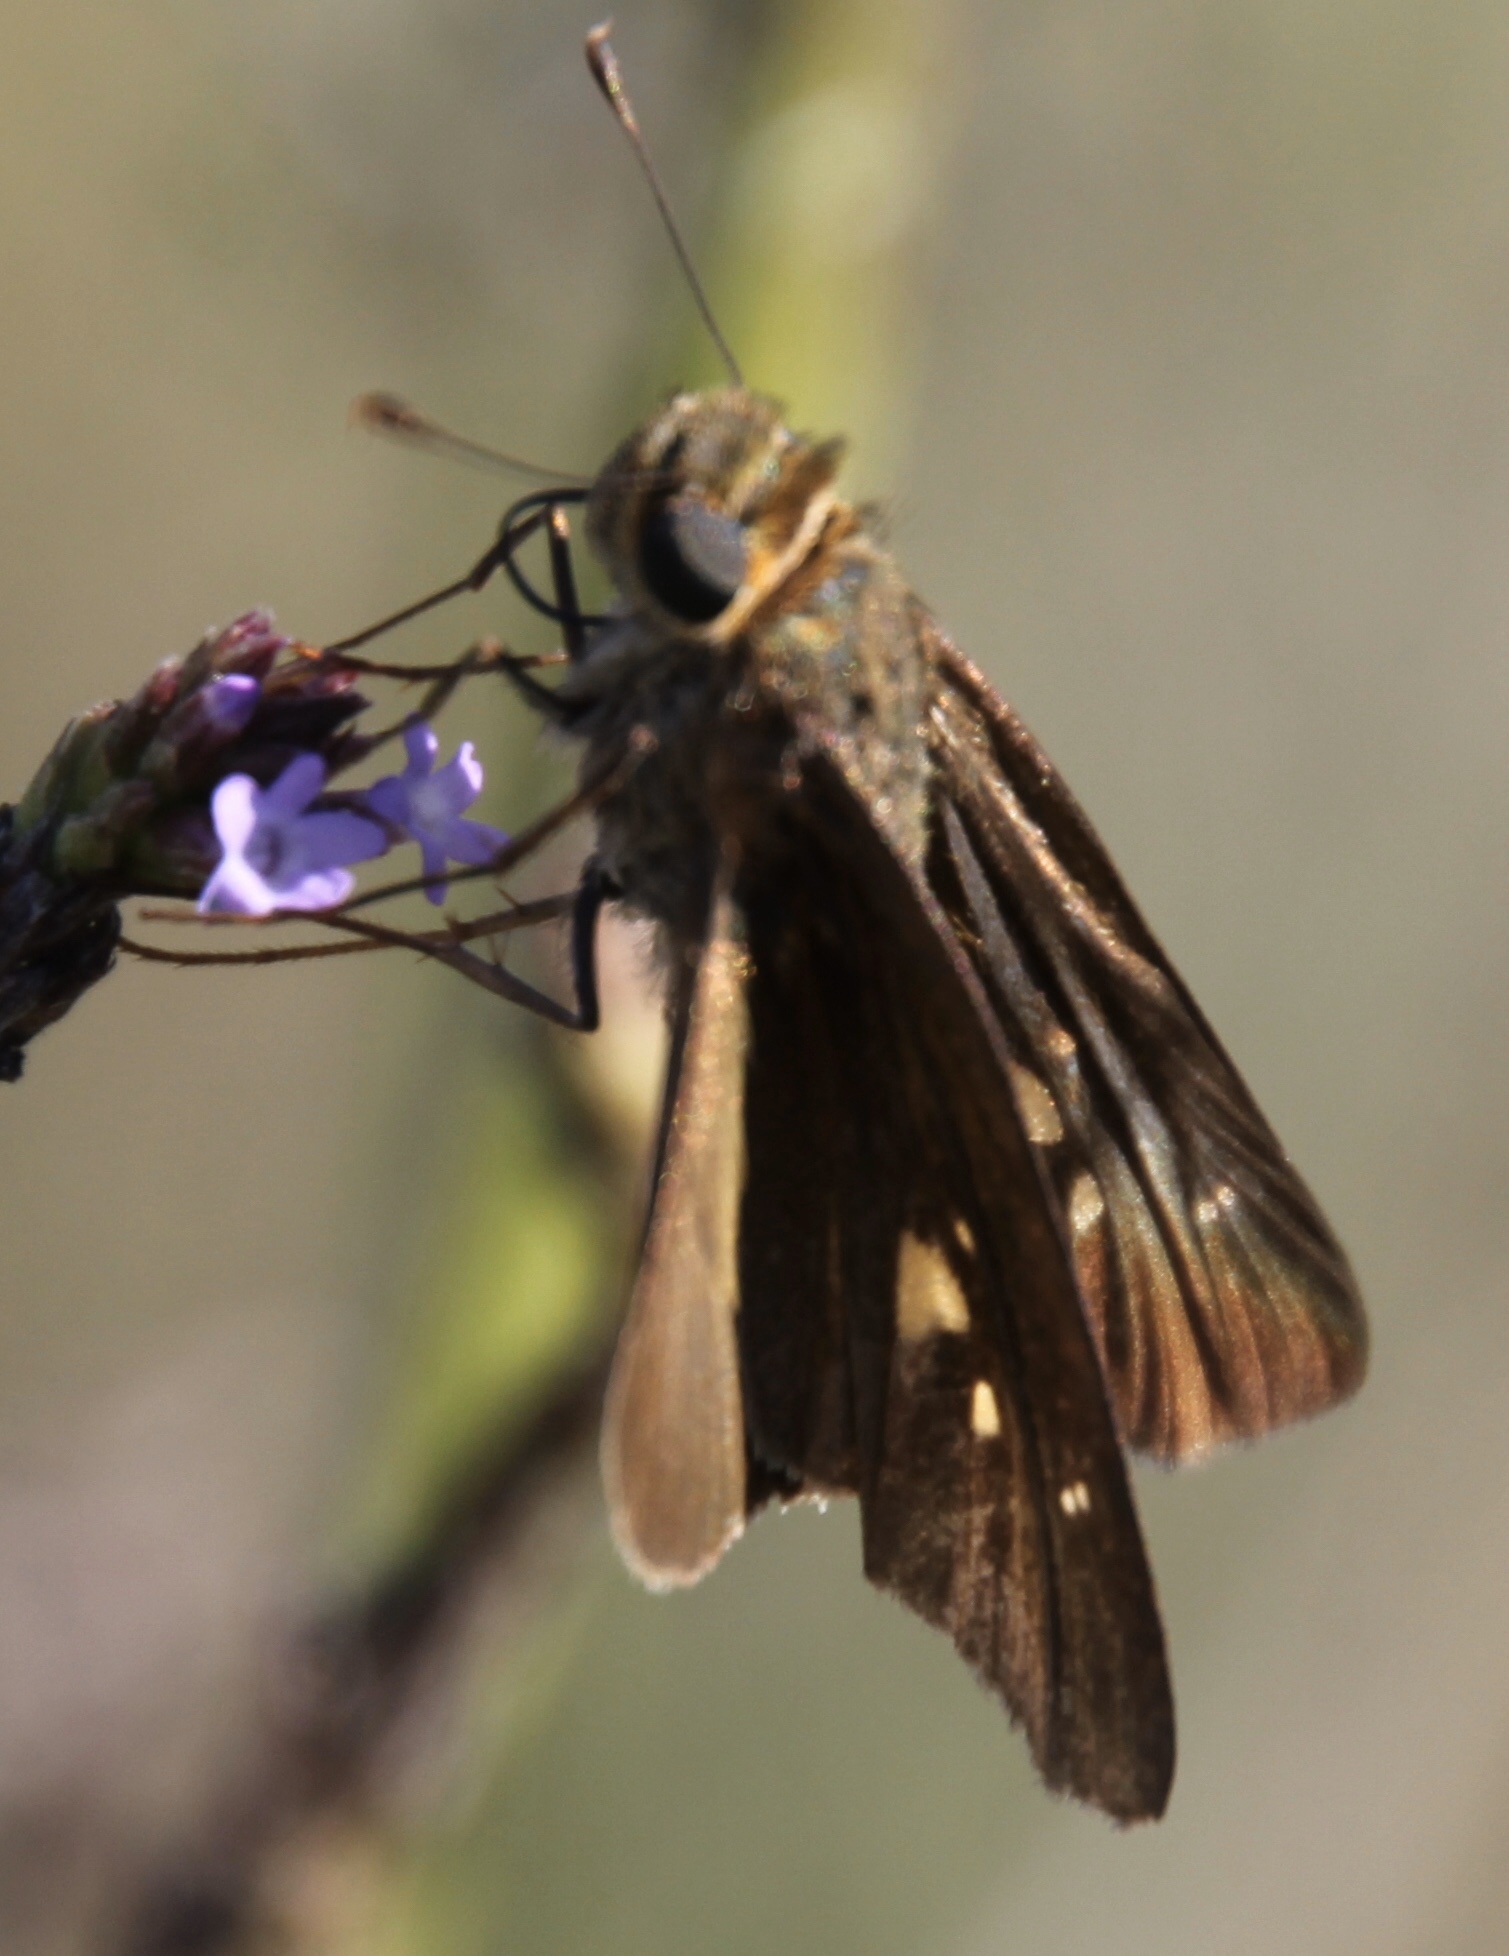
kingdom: Animalia
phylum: Arthropoda
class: Insecta
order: Lepidoptera
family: Hesperiidae
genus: Panoquina
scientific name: Panoquina ocola
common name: Ocola skipper
